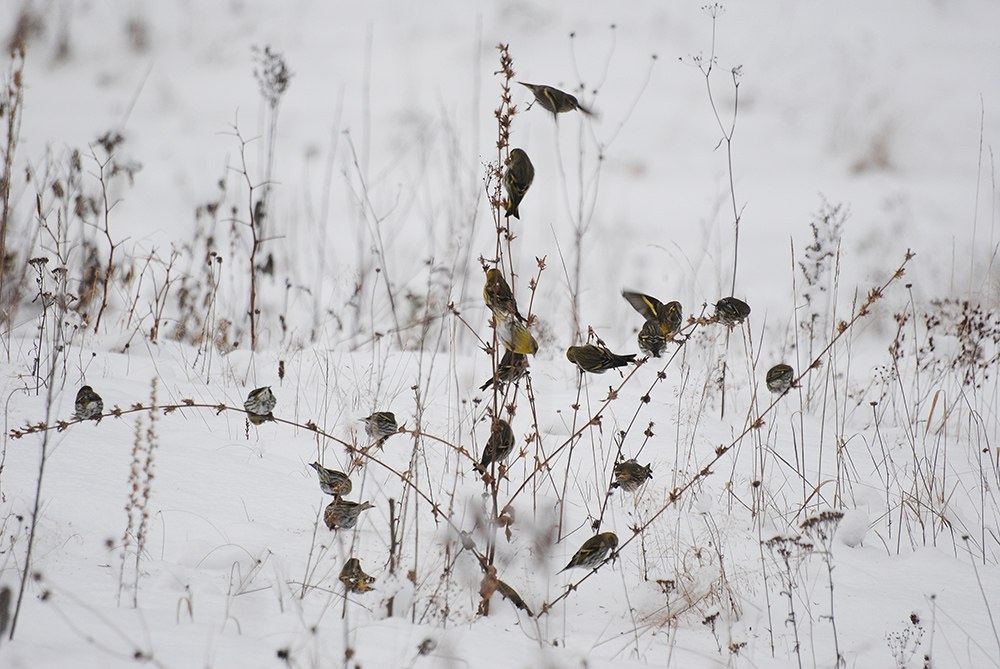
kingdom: Animalia
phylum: Chordata
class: Aves
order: Passeriformes
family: Fringillidae
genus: Spinus
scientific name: Spinus spinus
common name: Eurasian siskin
